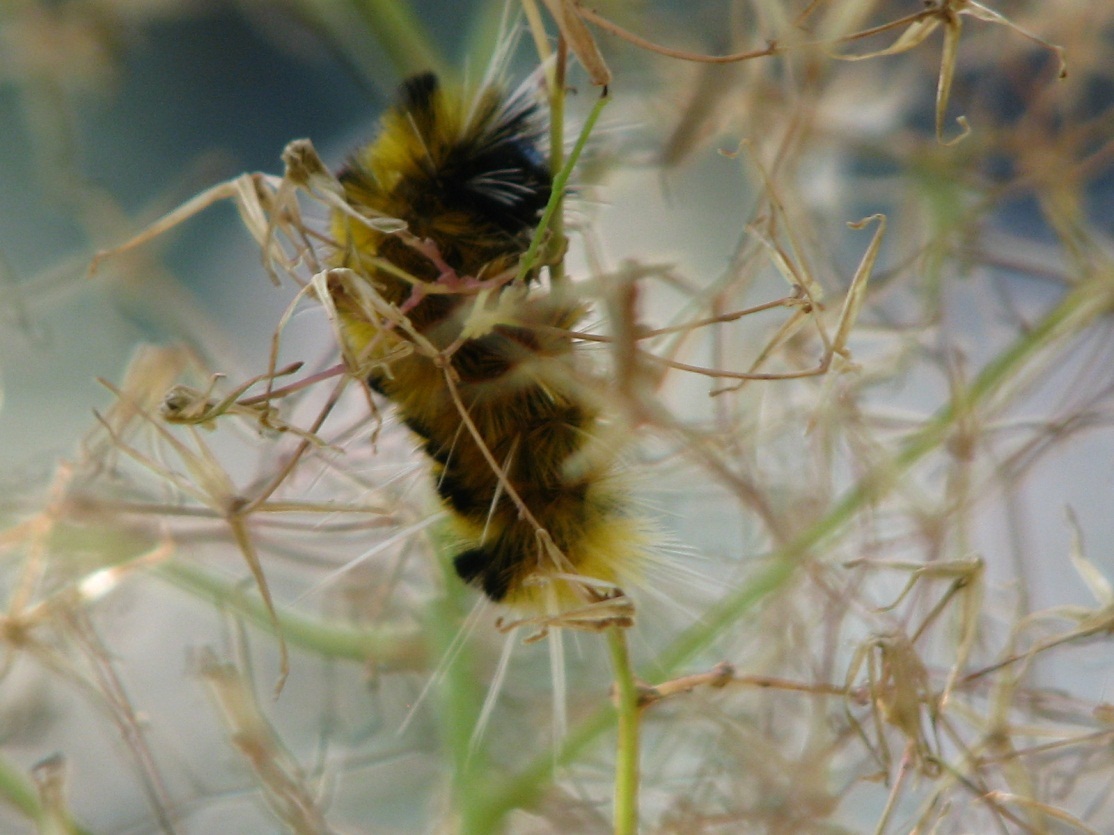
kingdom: Animalia
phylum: Arthropoda
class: Insecta
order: Lepidoptera
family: Erebidae
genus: Lophocampa
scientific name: Lophocampa maculata
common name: Spotted tussock moth
